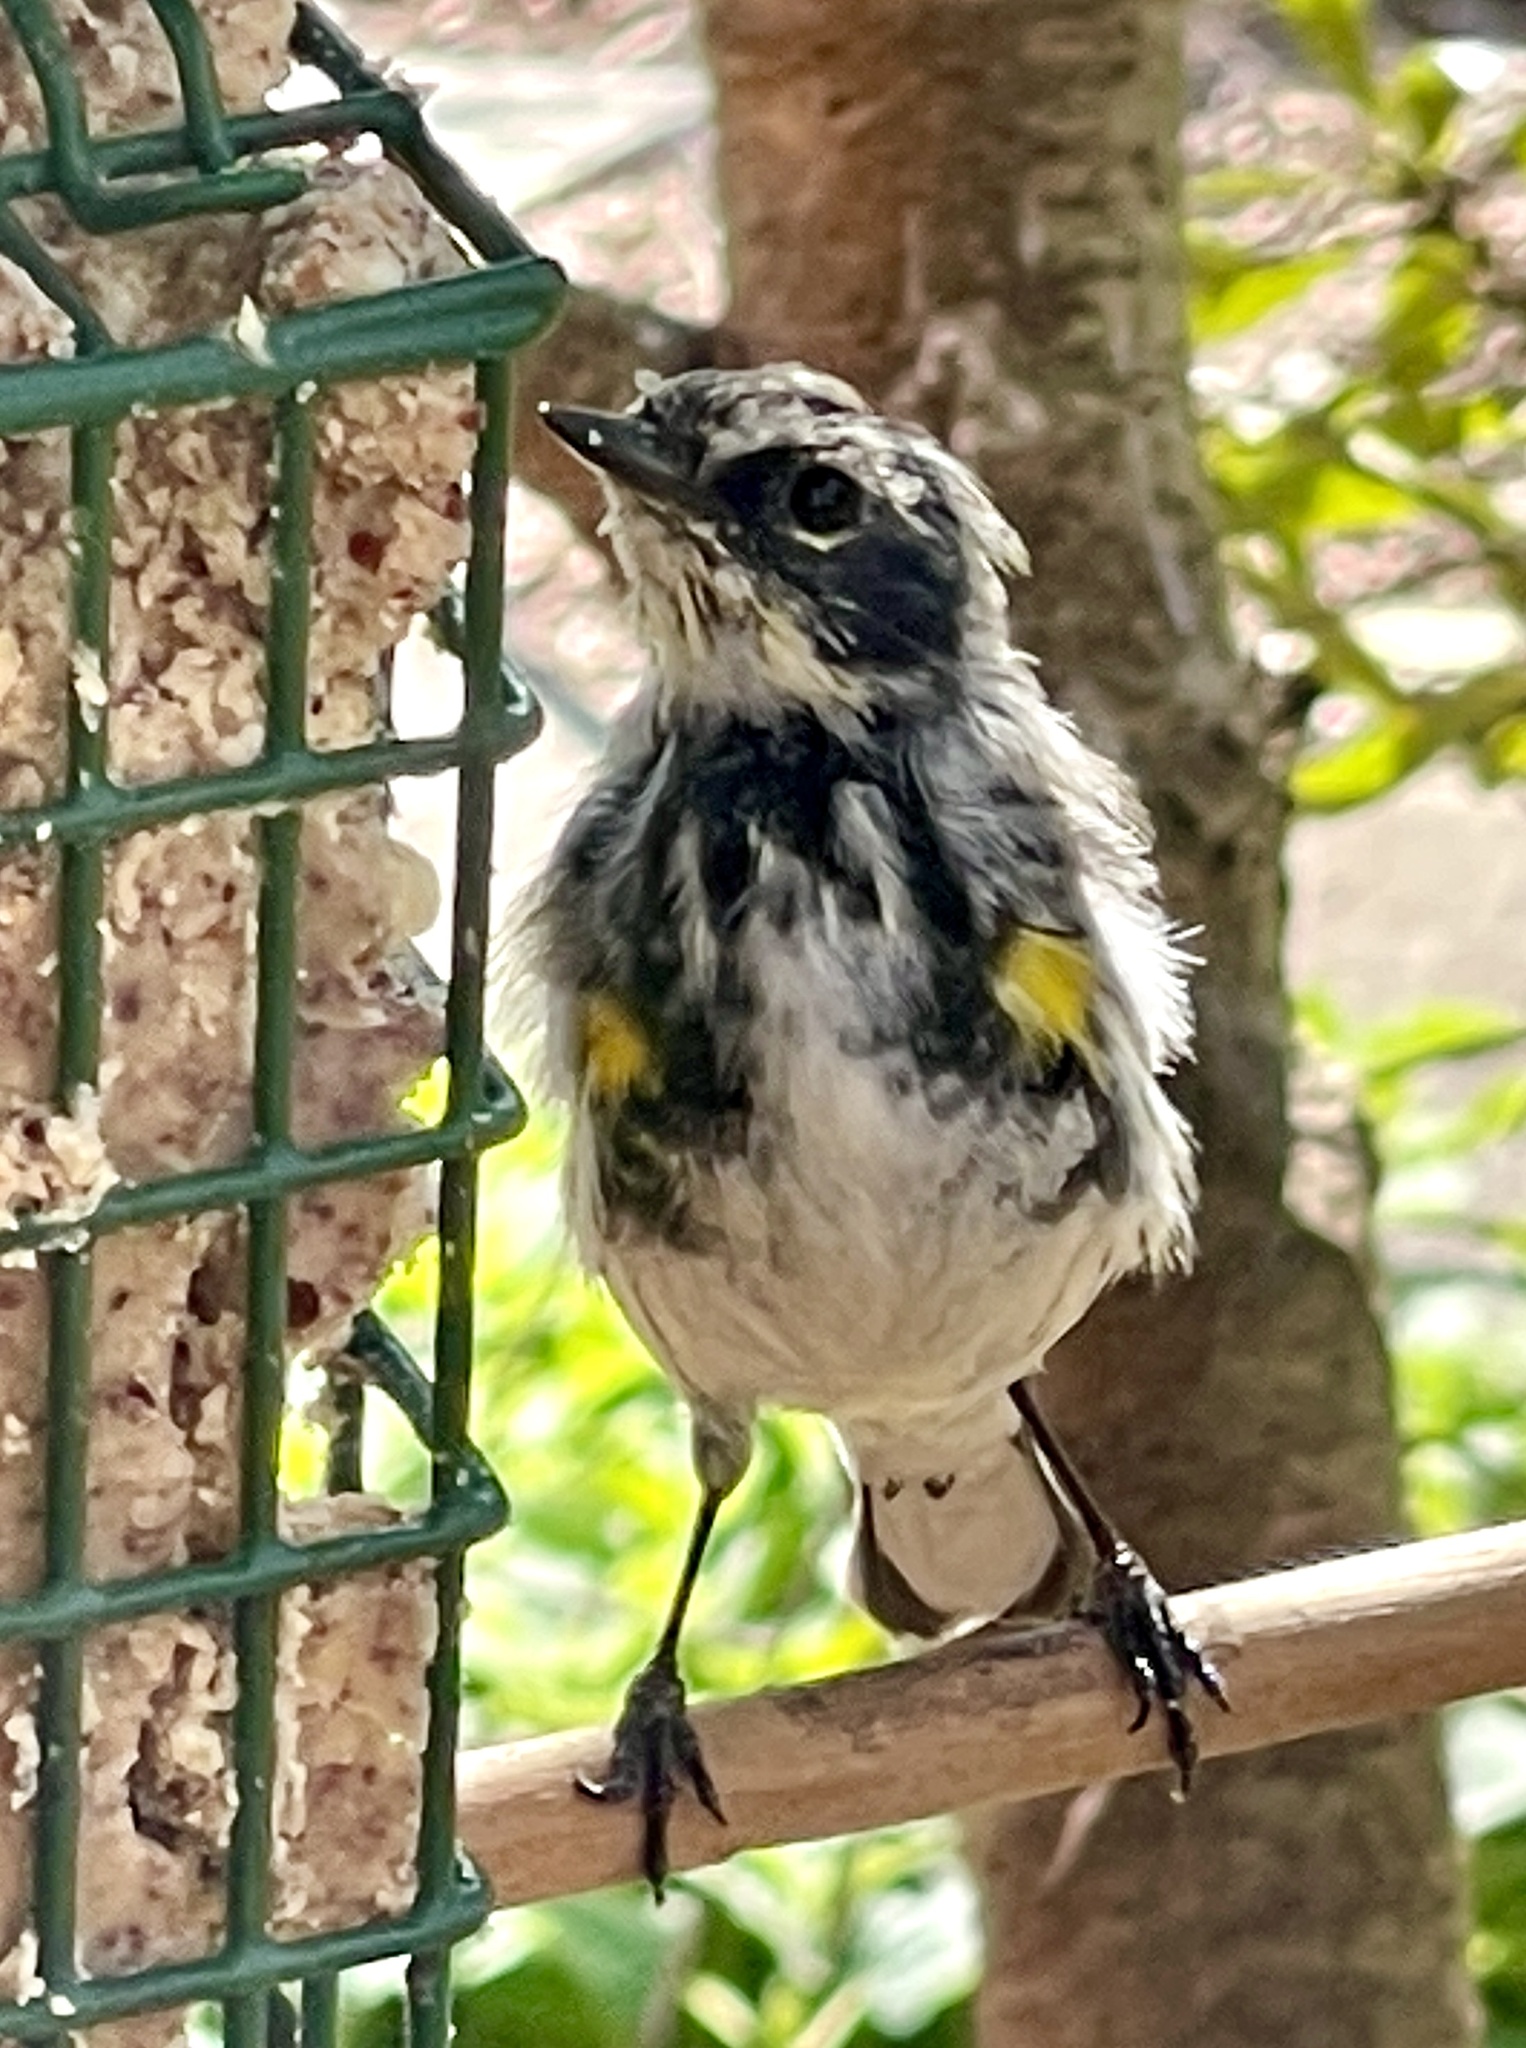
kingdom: Animalia
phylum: Chordata
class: Aves
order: Passeriformes
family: Parulidae
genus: Setophaga
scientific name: Setophaga coronata
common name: Myrtle warbler
